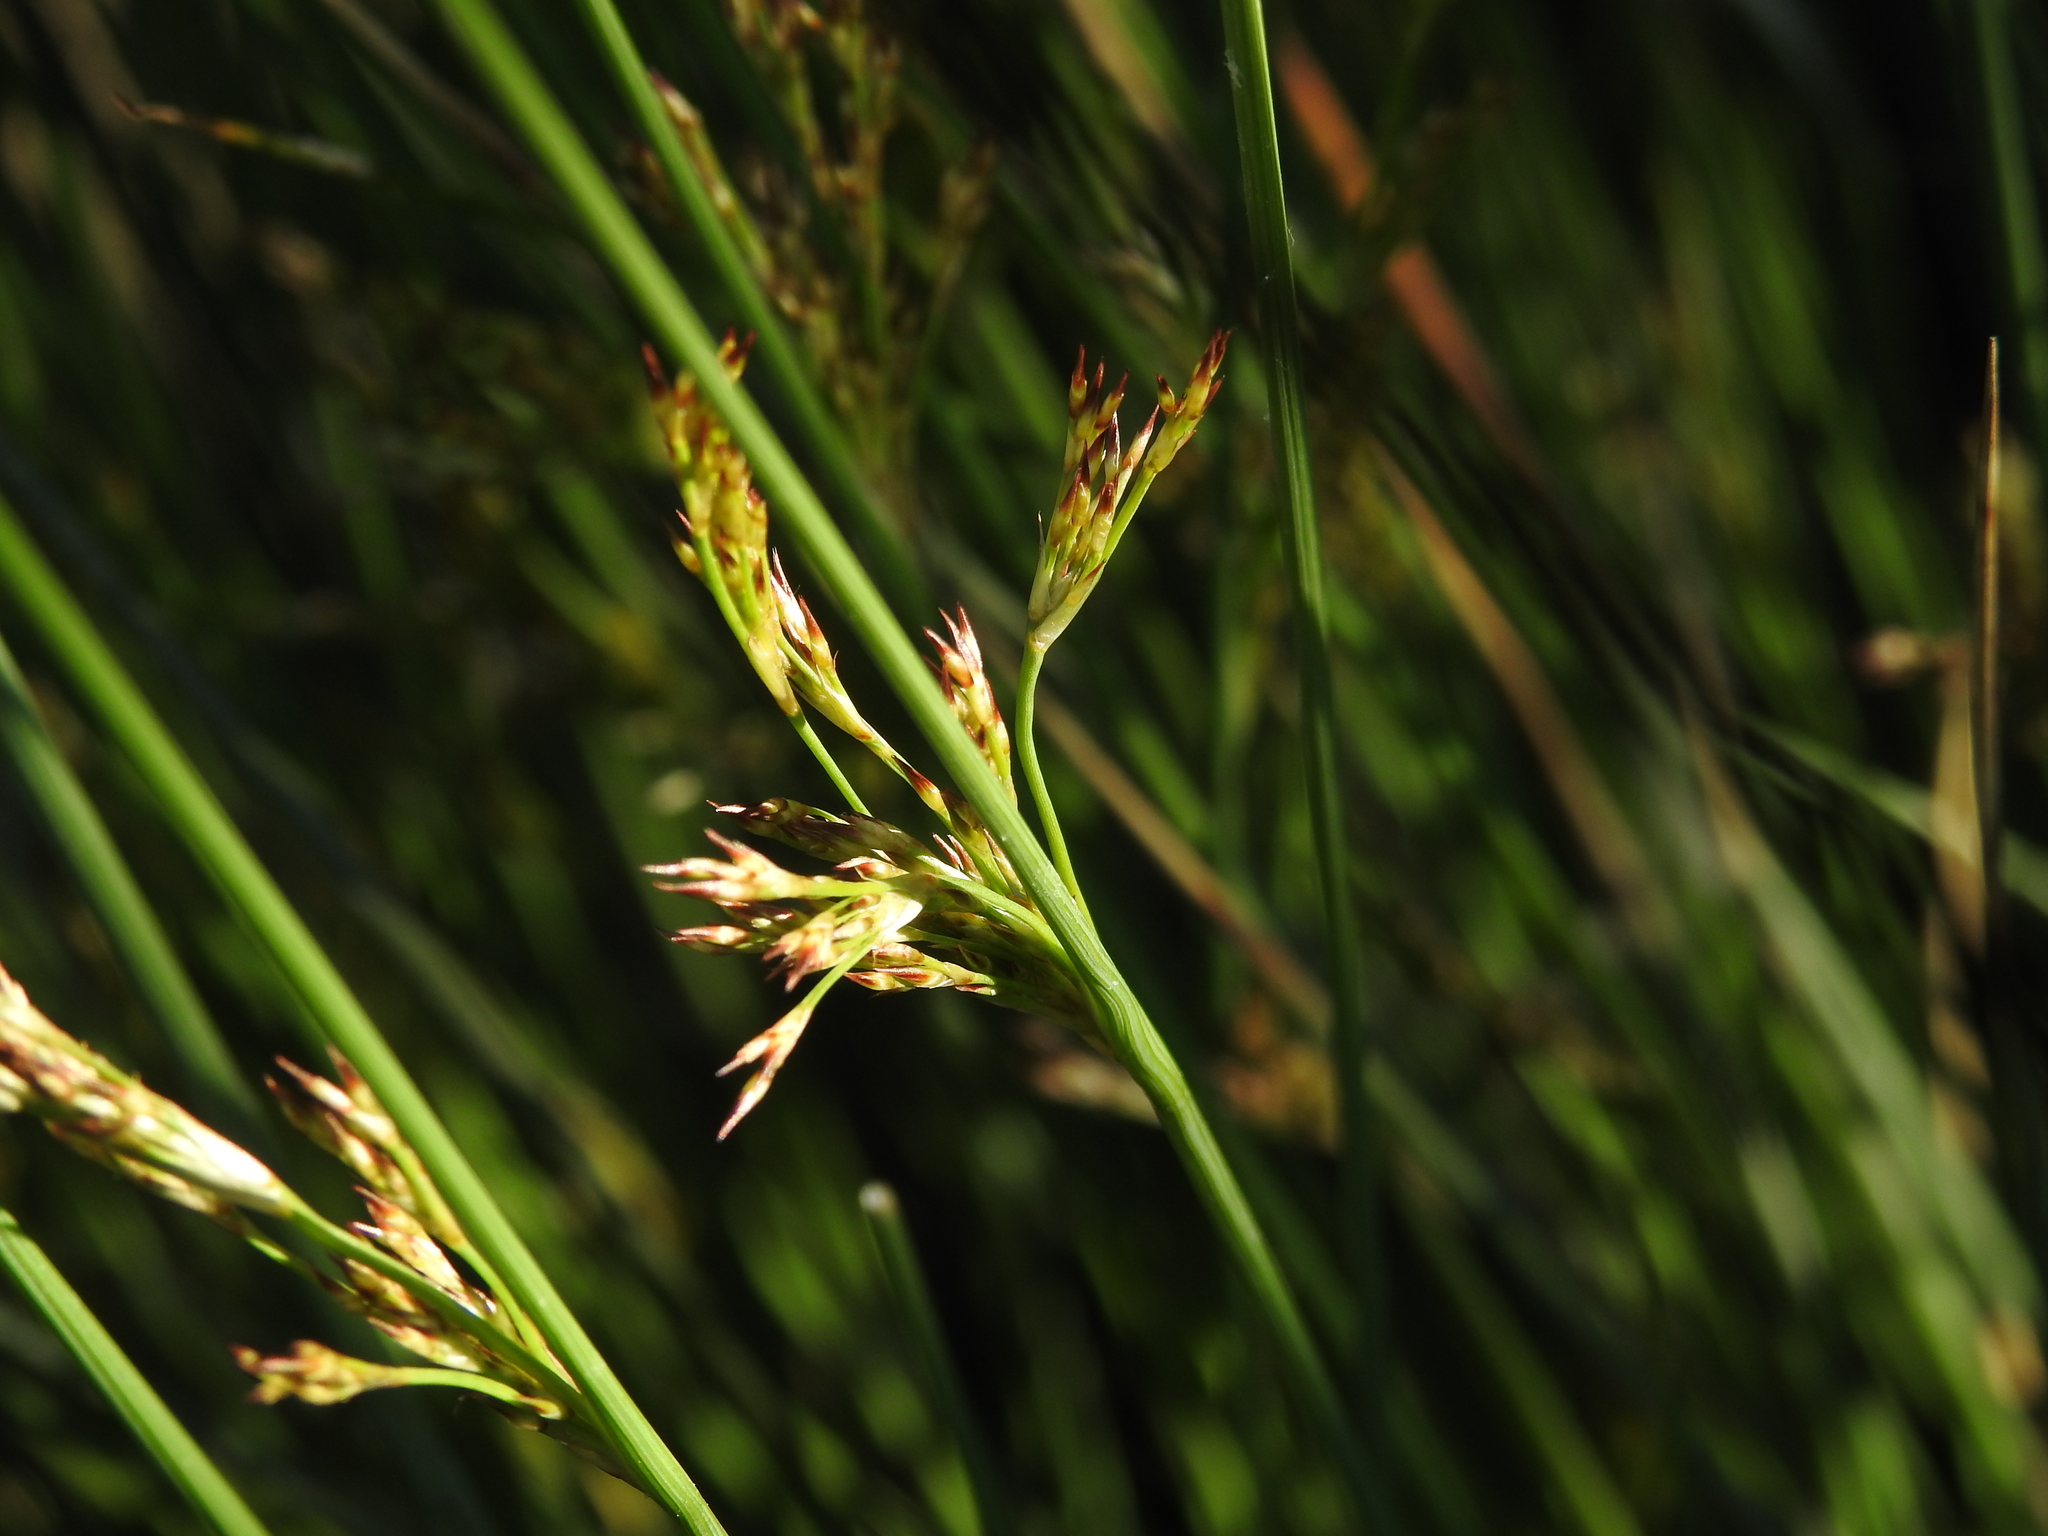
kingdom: Plantae
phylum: Tracheophyta
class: Liliopsida
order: Poales
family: Juncaceae
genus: Juncus
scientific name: Juncus inflexus
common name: Hard rush
